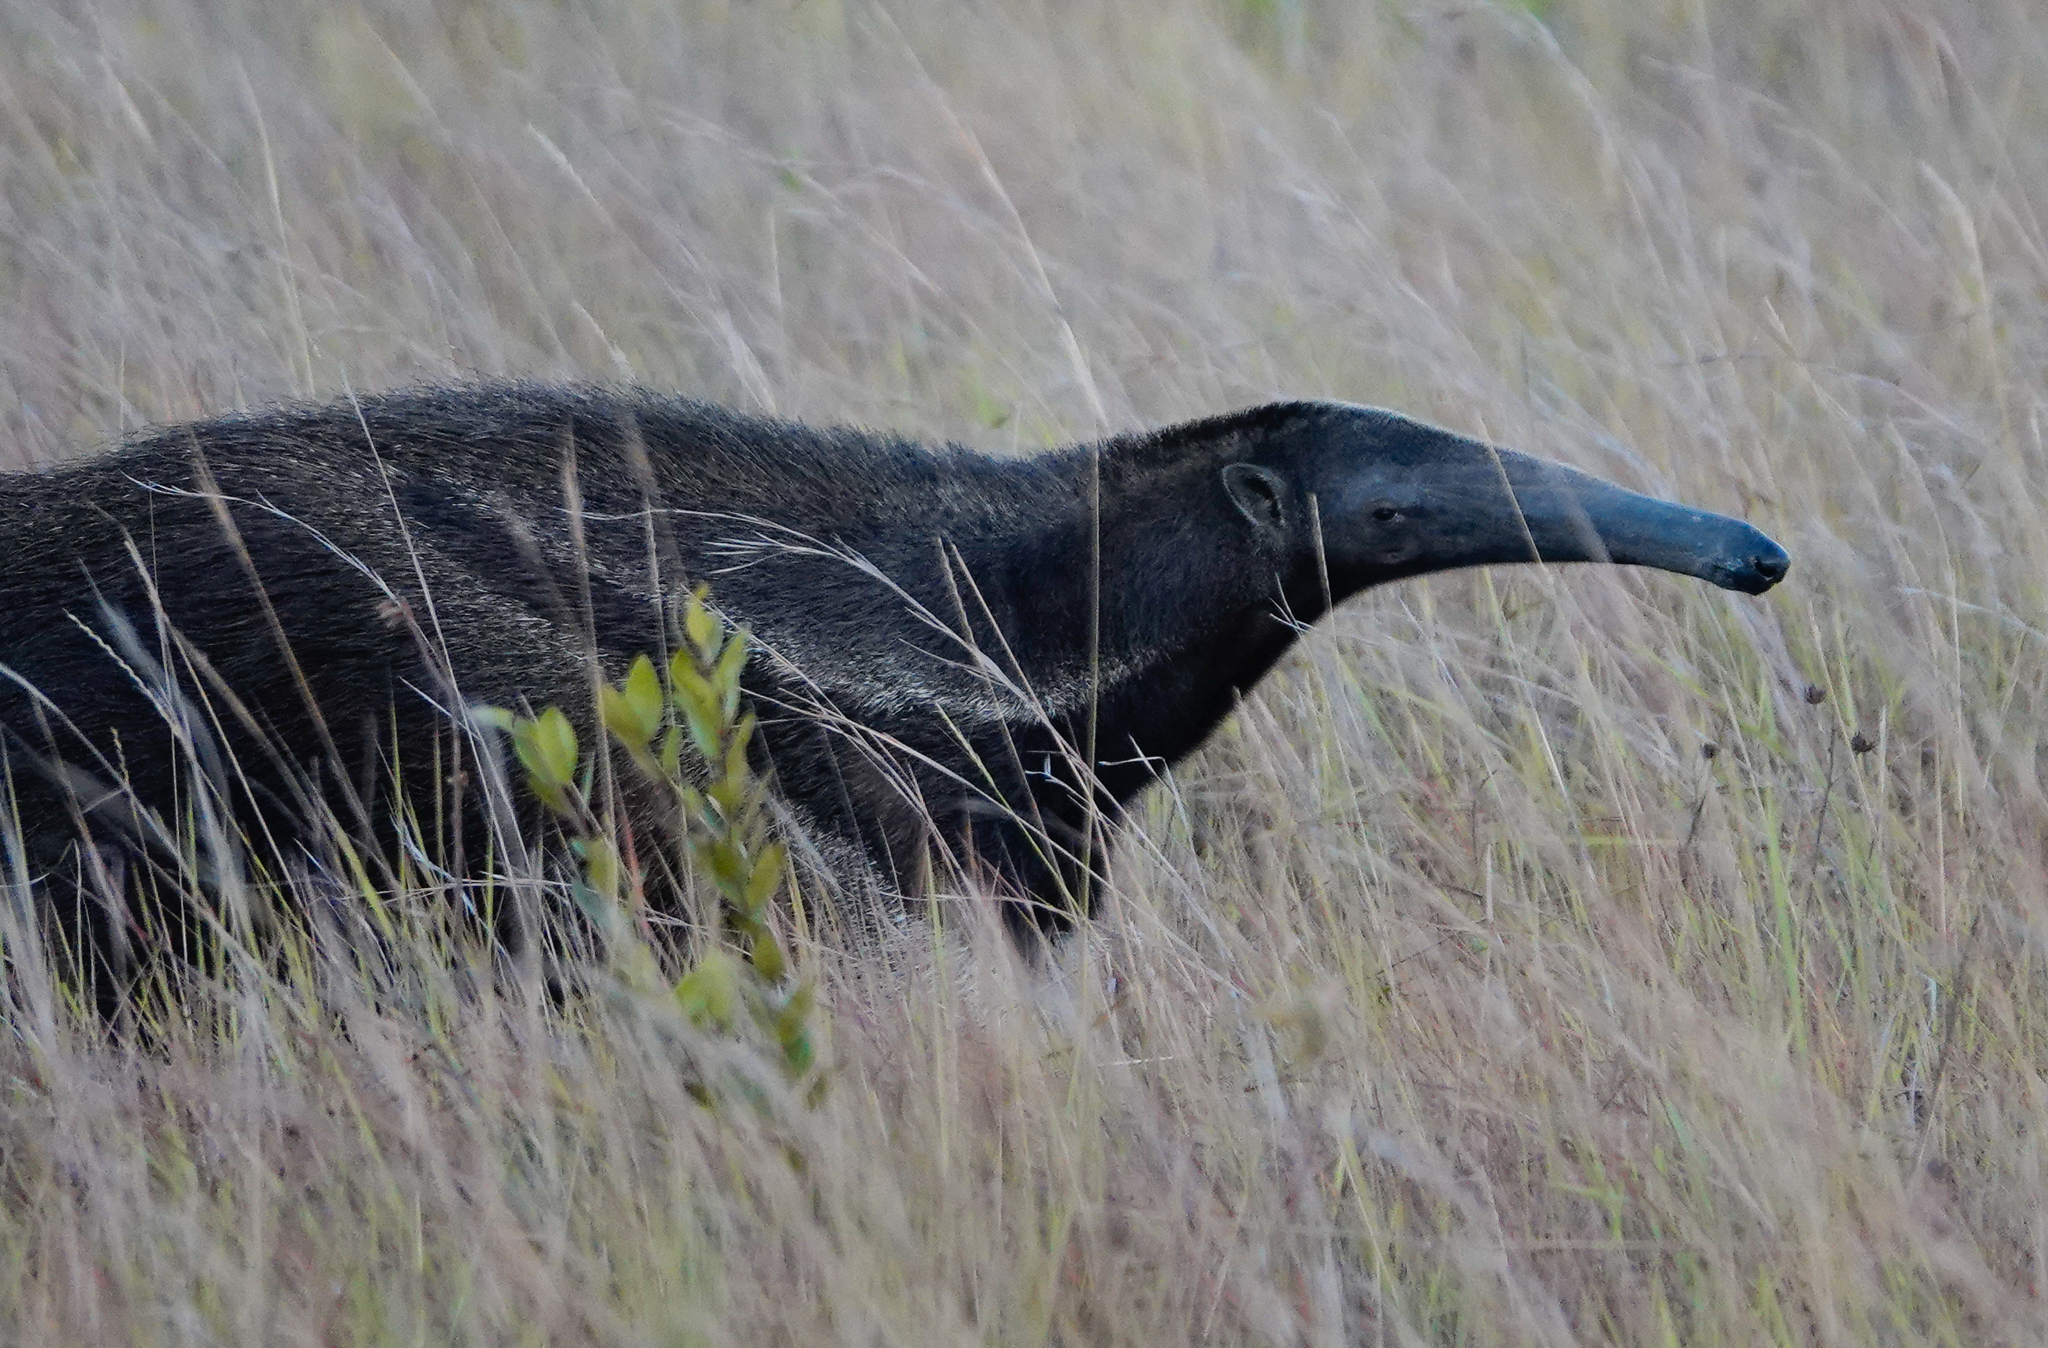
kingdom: Animalia
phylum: Chordata
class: Mammalia
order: Pilosa
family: Myrmecophagidae
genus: Myrmecophaga
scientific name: Myrmecophaga tridactyla
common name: Giant anteater
